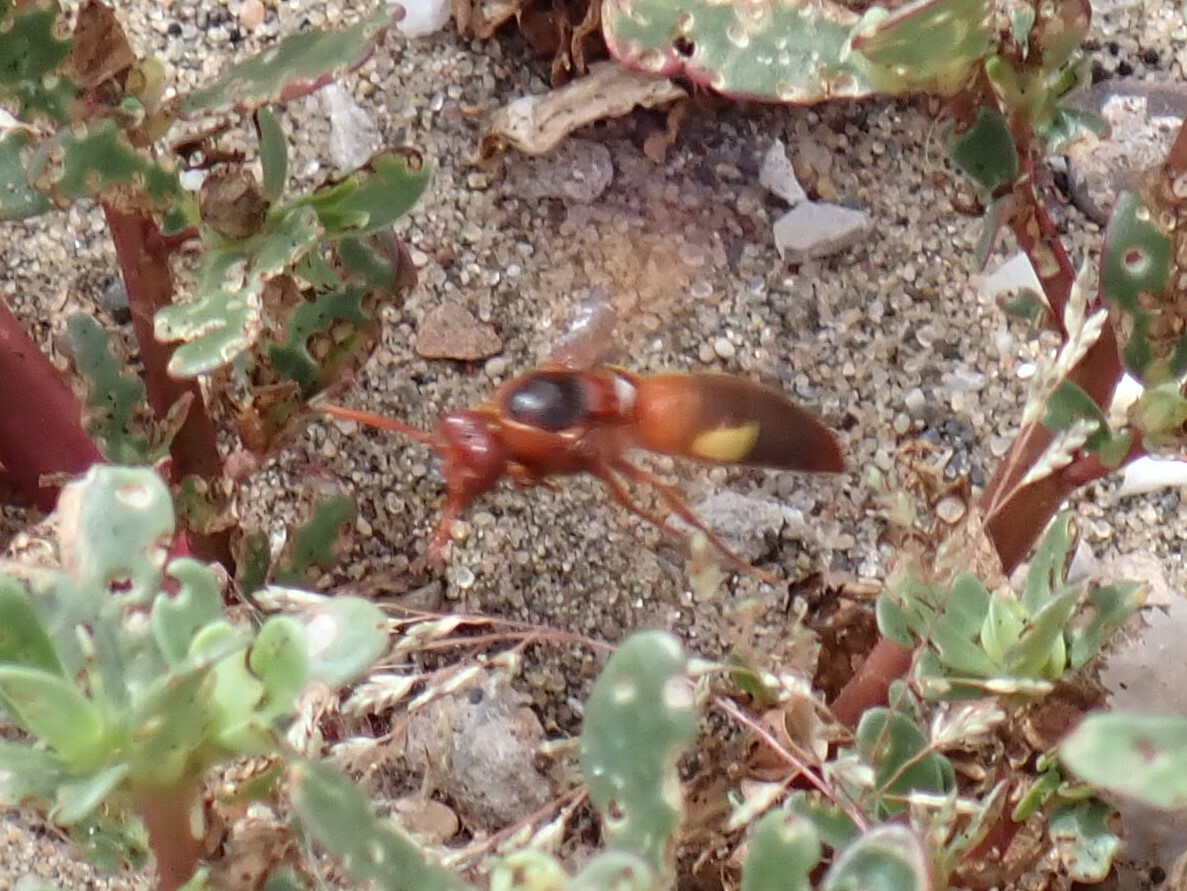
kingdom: Animalia
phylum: Arthropoda
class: Insecta
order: Hymenoptera
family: Eumenidae
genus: Rhynchium
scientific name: Rhynchium oculatum
